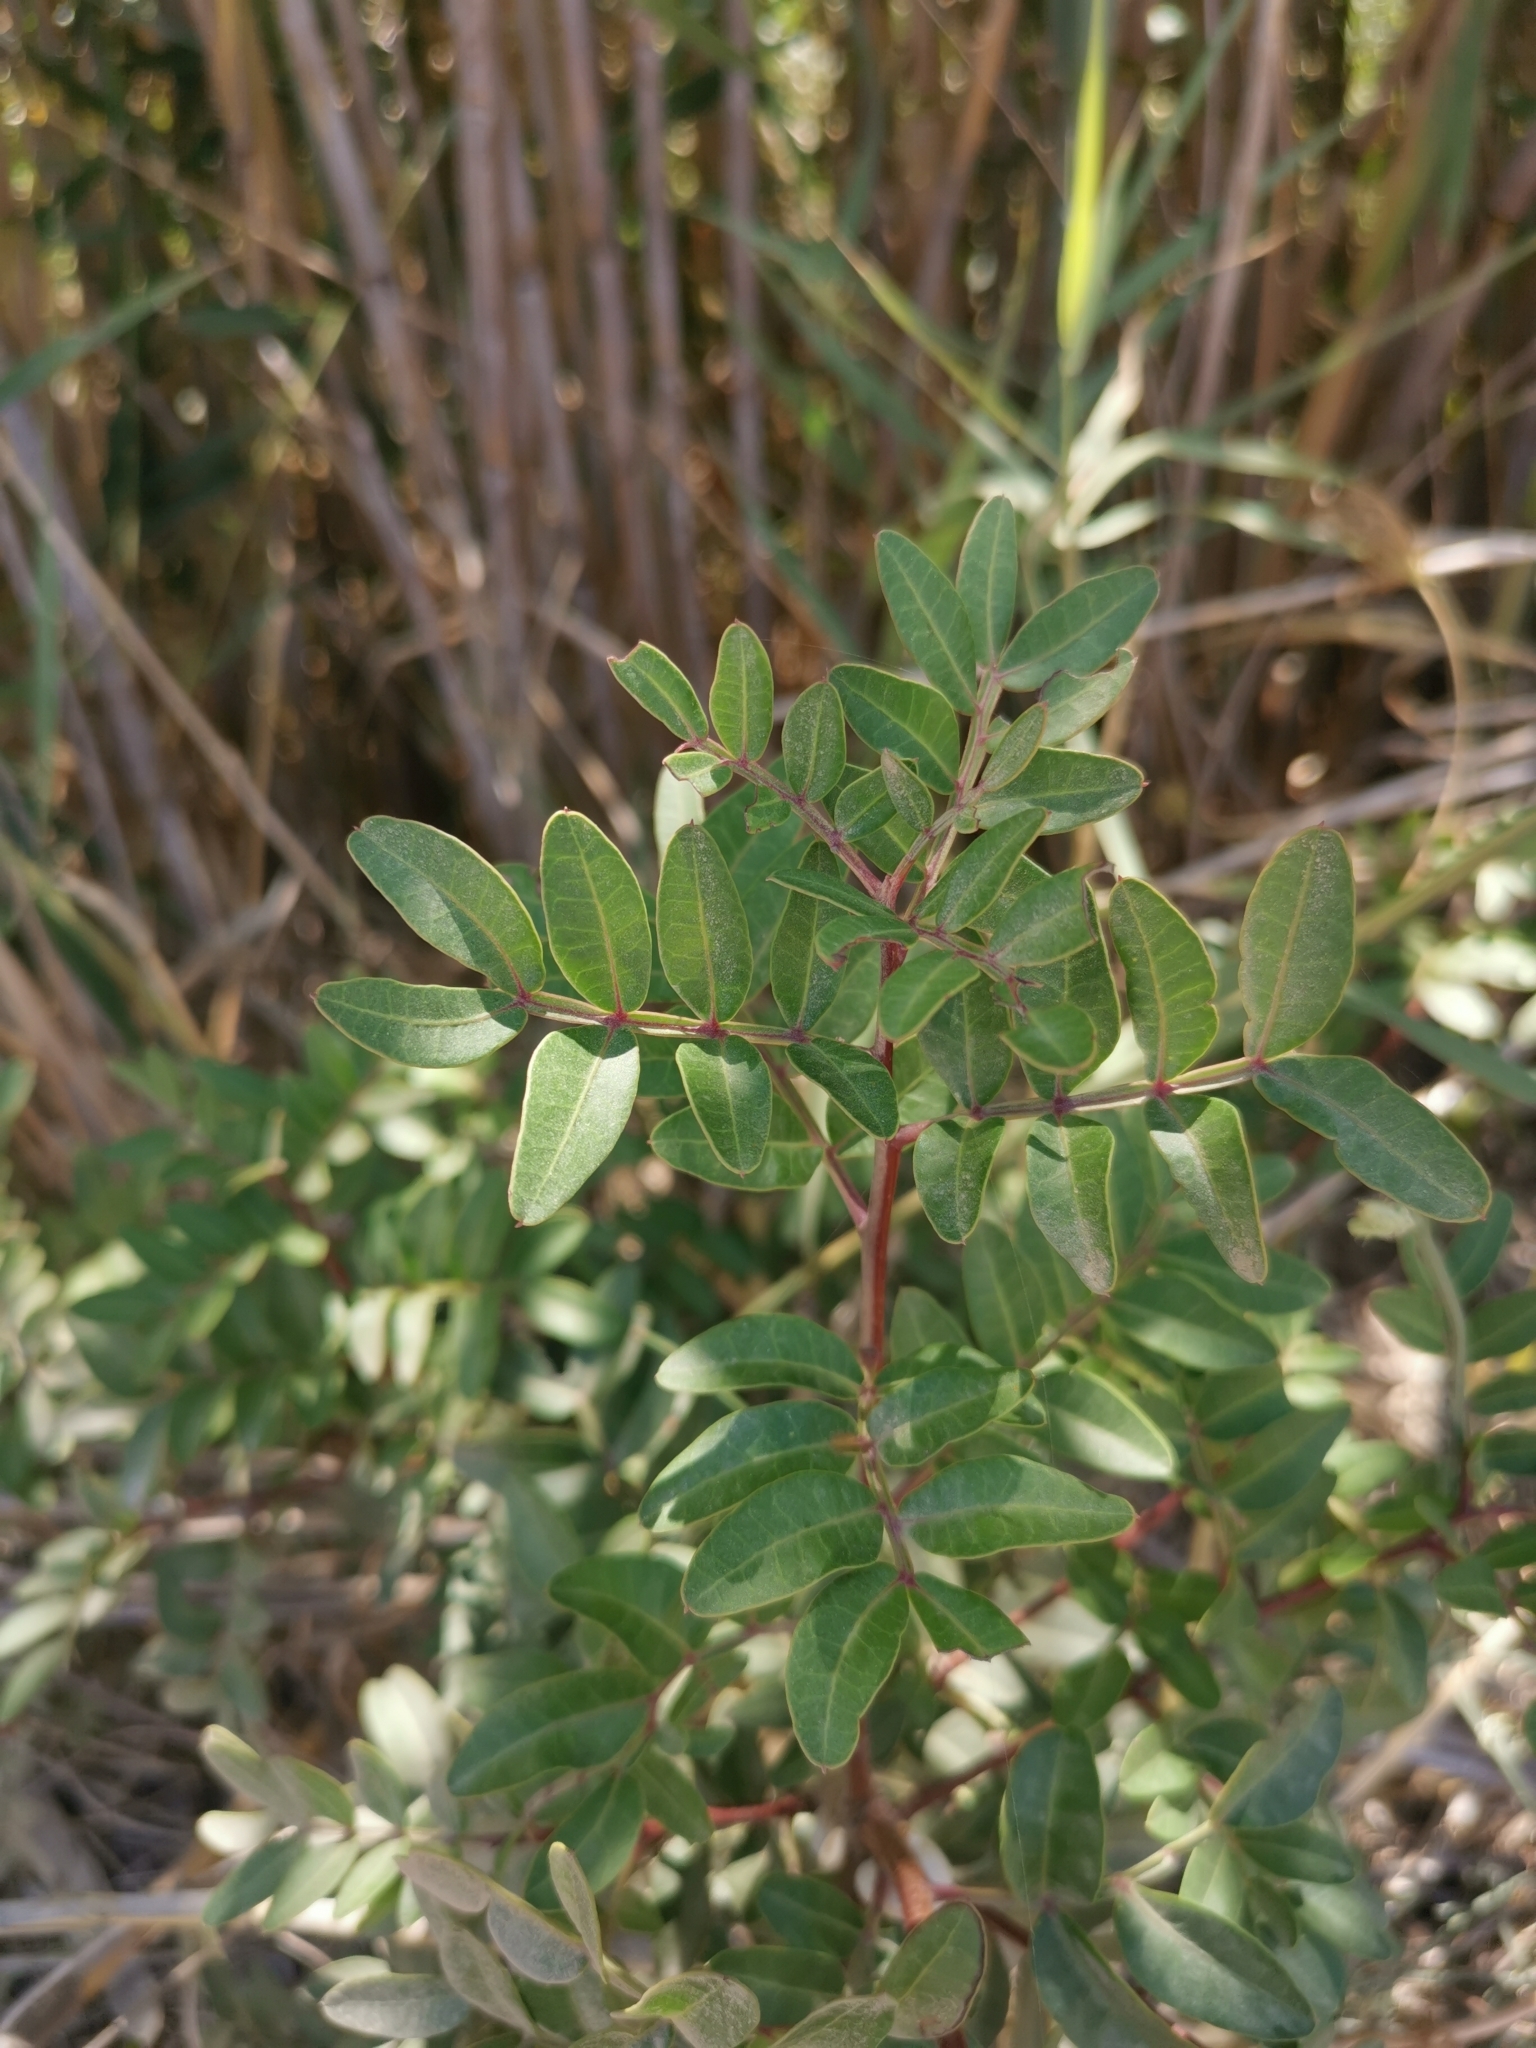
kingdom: Plantae
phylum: Tracheophyta
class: Magnoliopsida
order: Sapindales
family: Anacardiaceae
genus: Pistacia
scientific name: Pistacia lentiscus
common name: Lentisk
